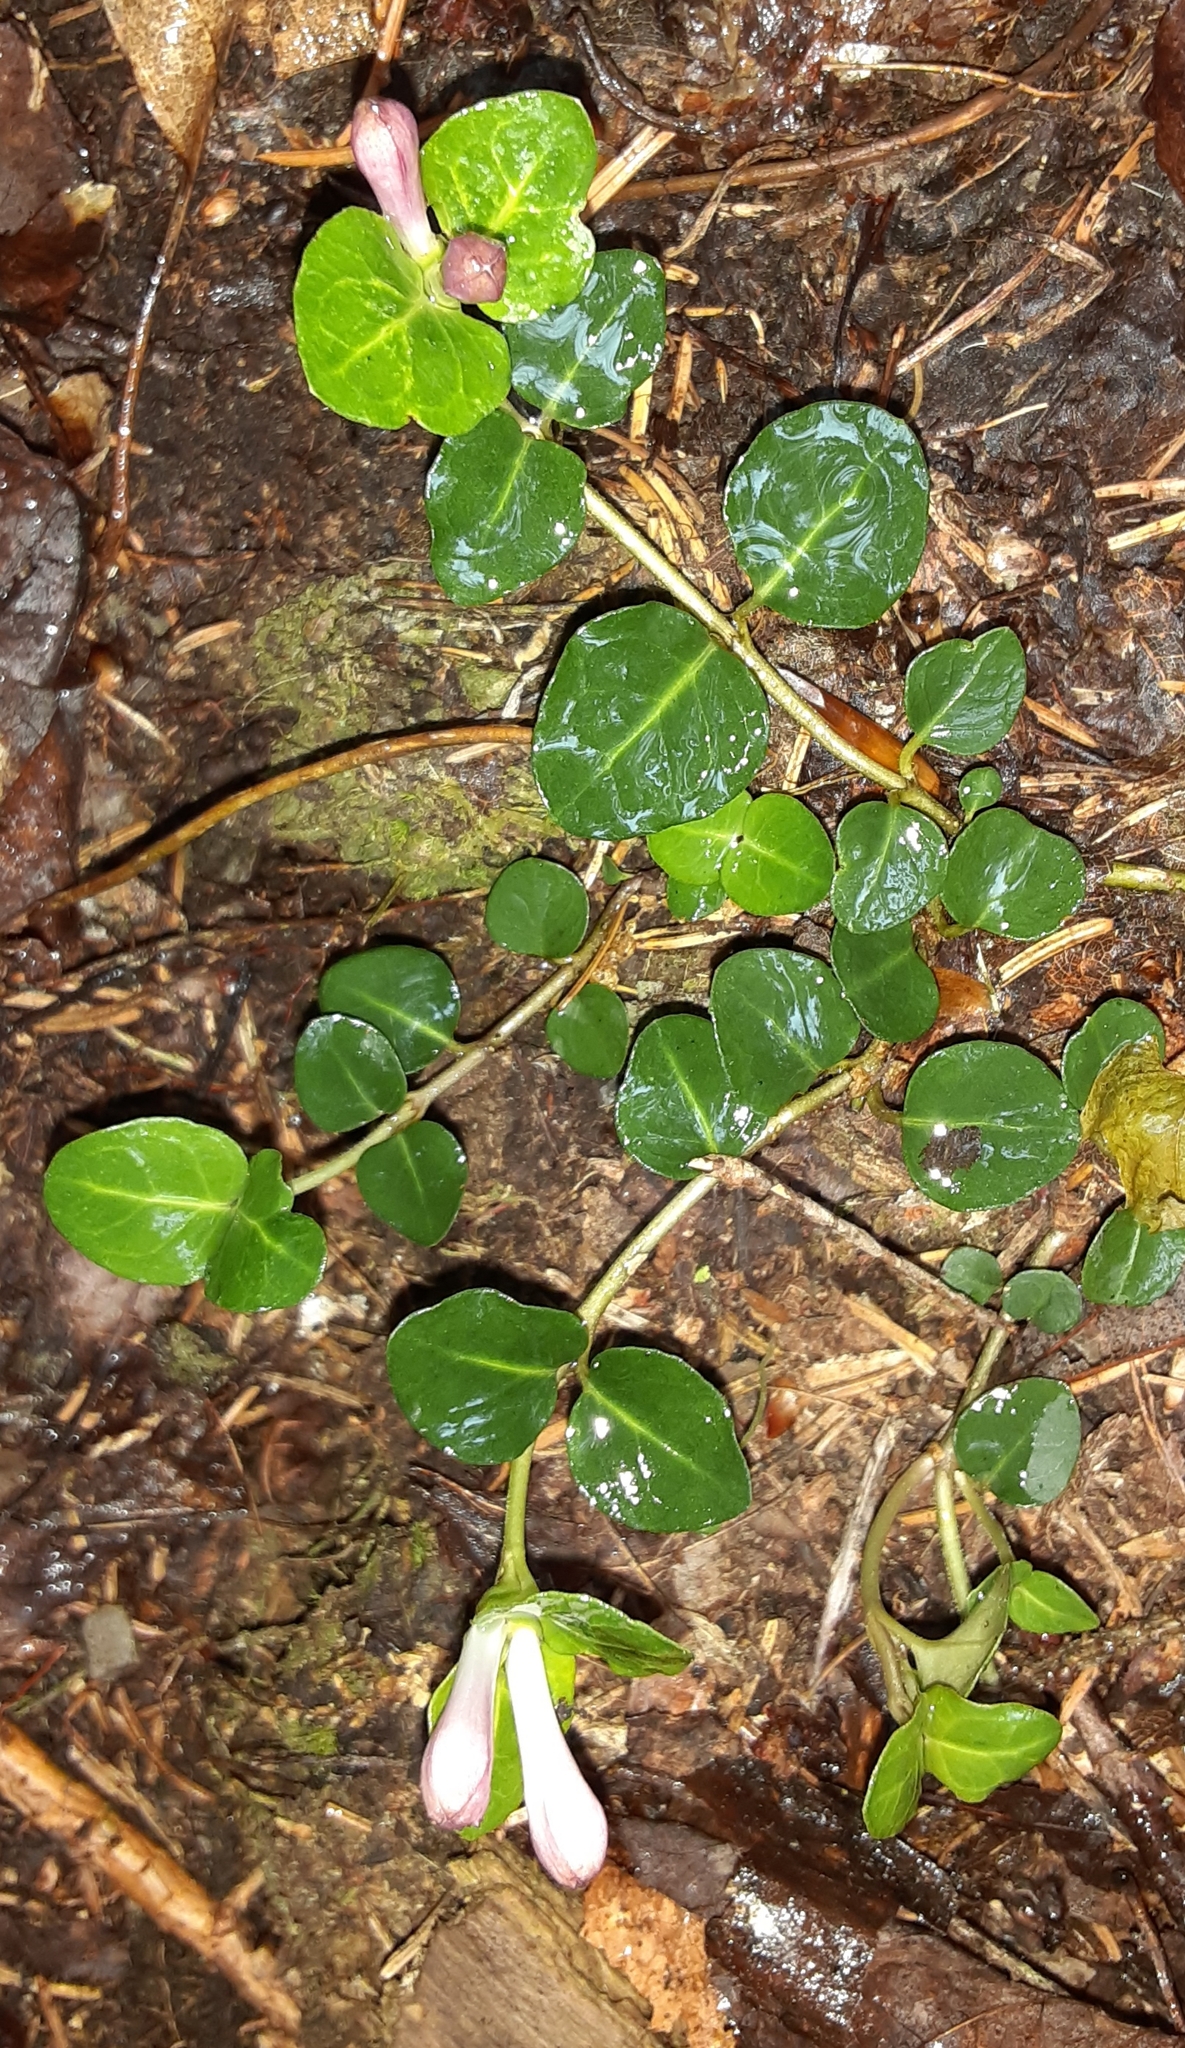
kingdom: Plantae
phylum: Tracheophyta
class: Magnoliopsida
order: Gentianales
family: Rubiaceae
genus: Mitchella
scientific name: Mitchella repens
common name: Partridge-berry
